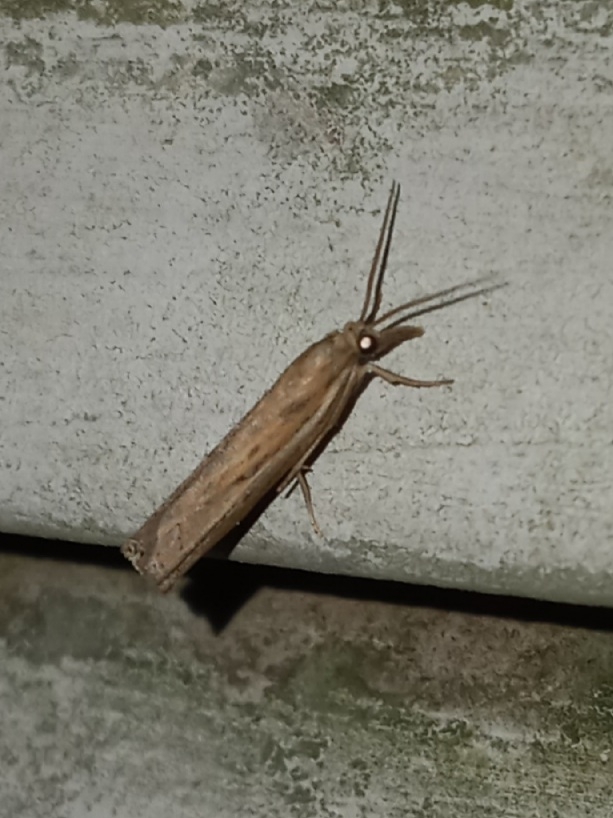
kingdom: Animalia
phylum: Arthropoda
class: Insecta
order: Lepidoptera
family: Crambidae
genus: Fissicrambus
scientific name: Fissicrambus mutabilis
